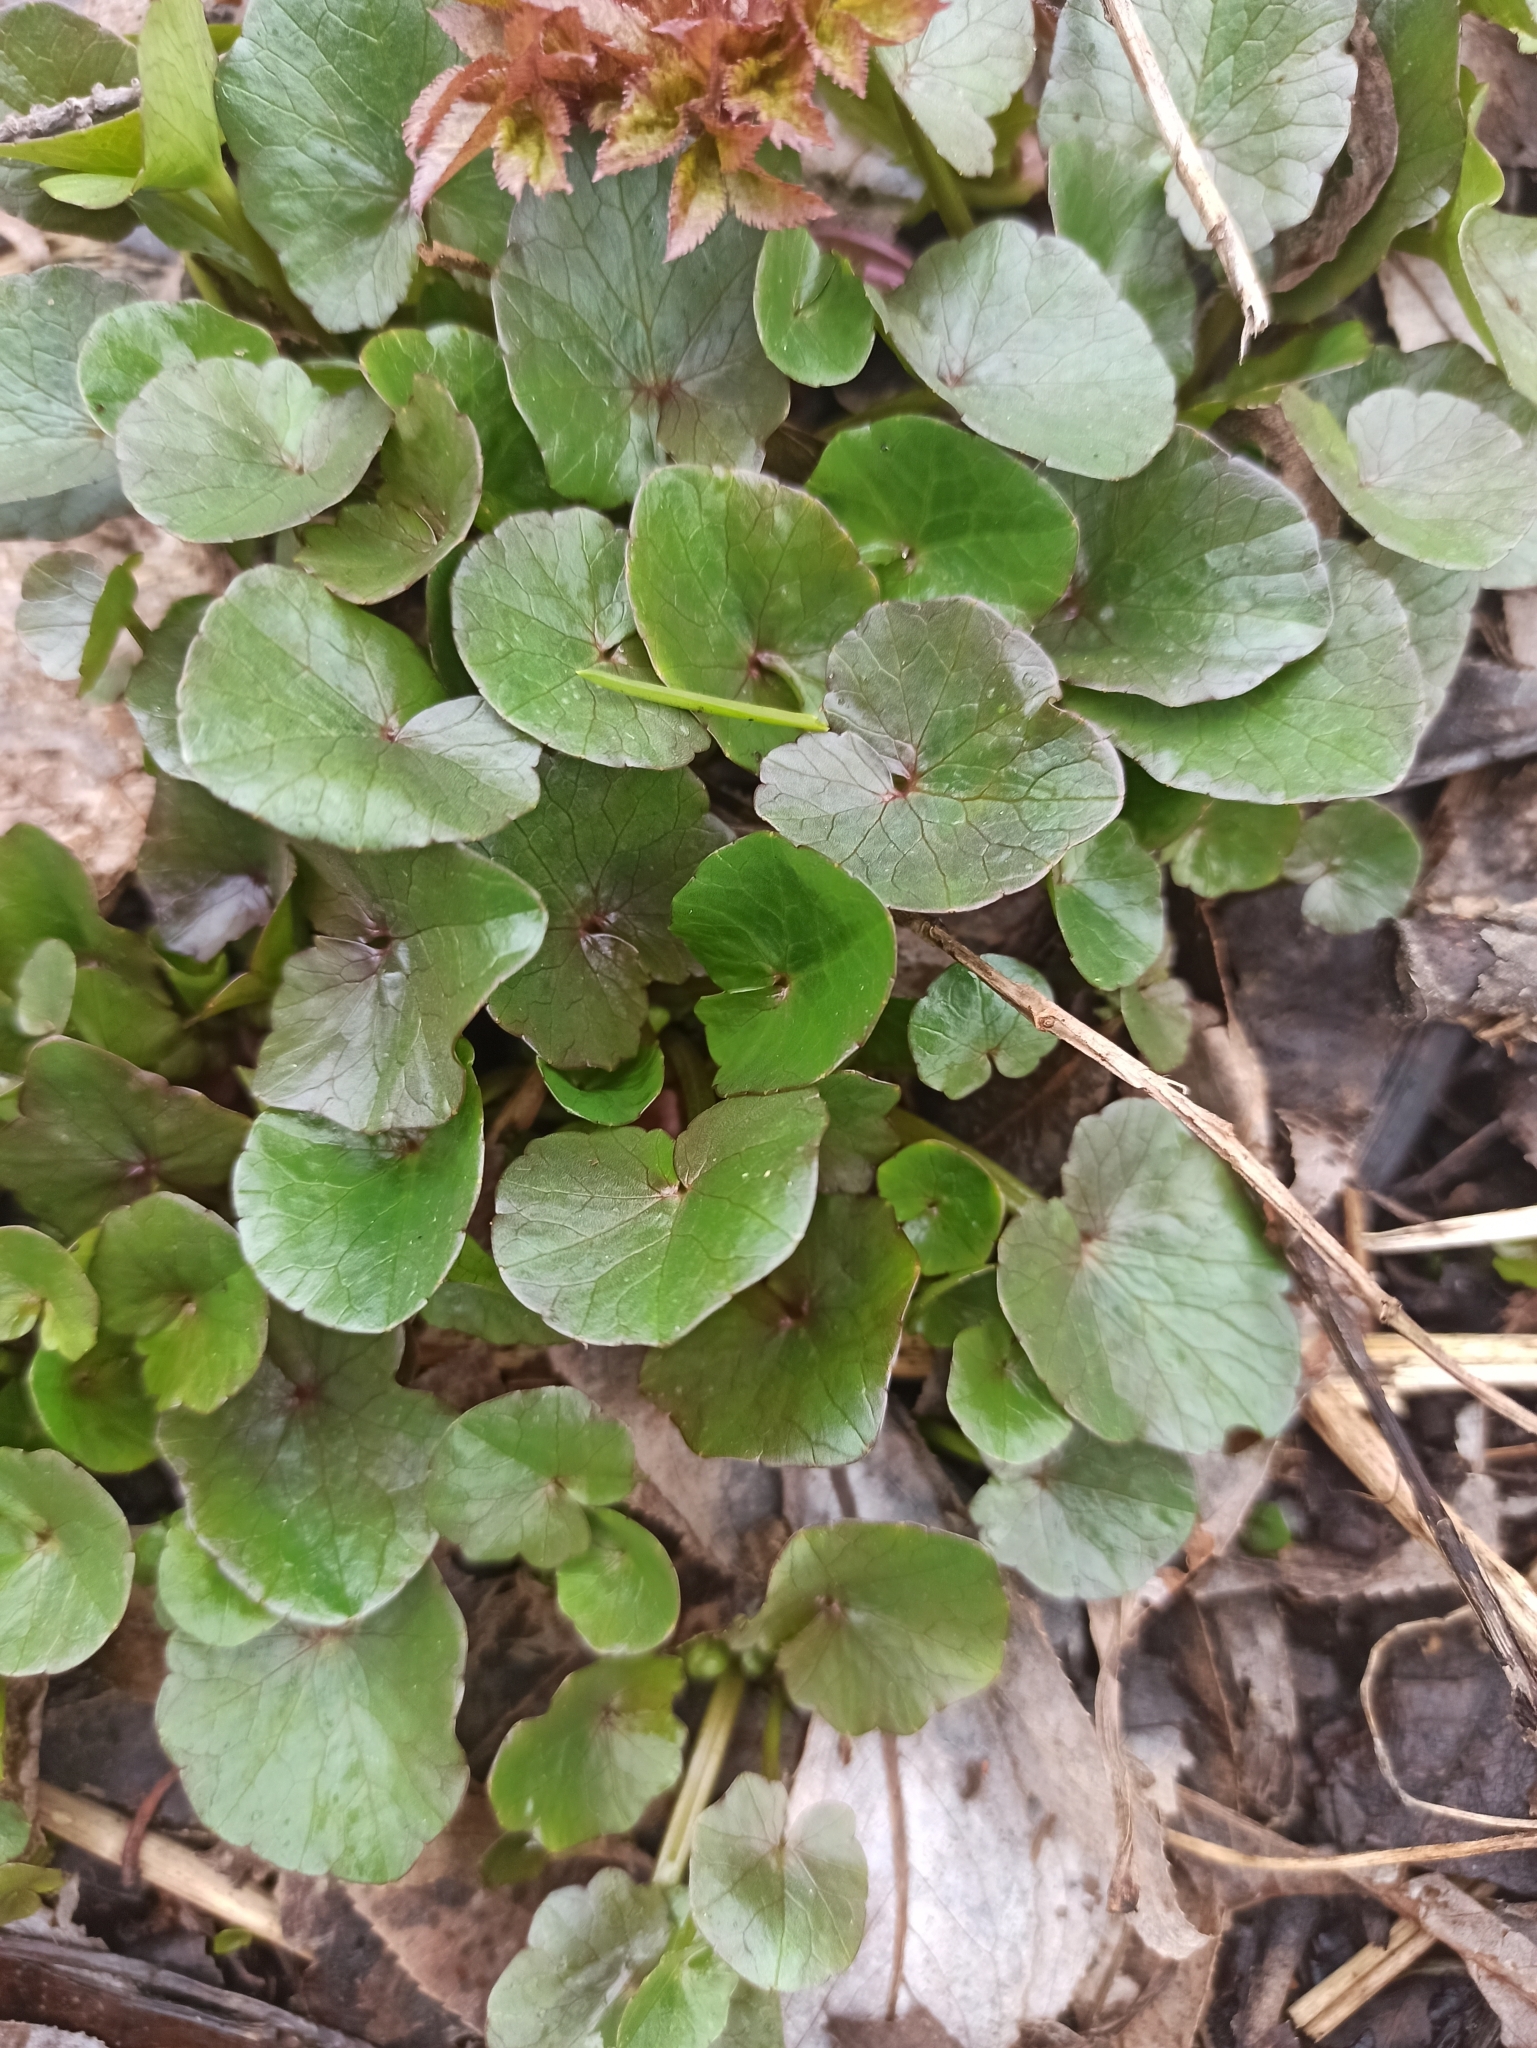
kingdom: Plantae
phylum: Tracheophyta
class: Magnoliopsida
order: Ranunculales
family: Ranunculaceae
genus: Ficaria
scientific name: Ficaria verna
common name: Lesser celandine
